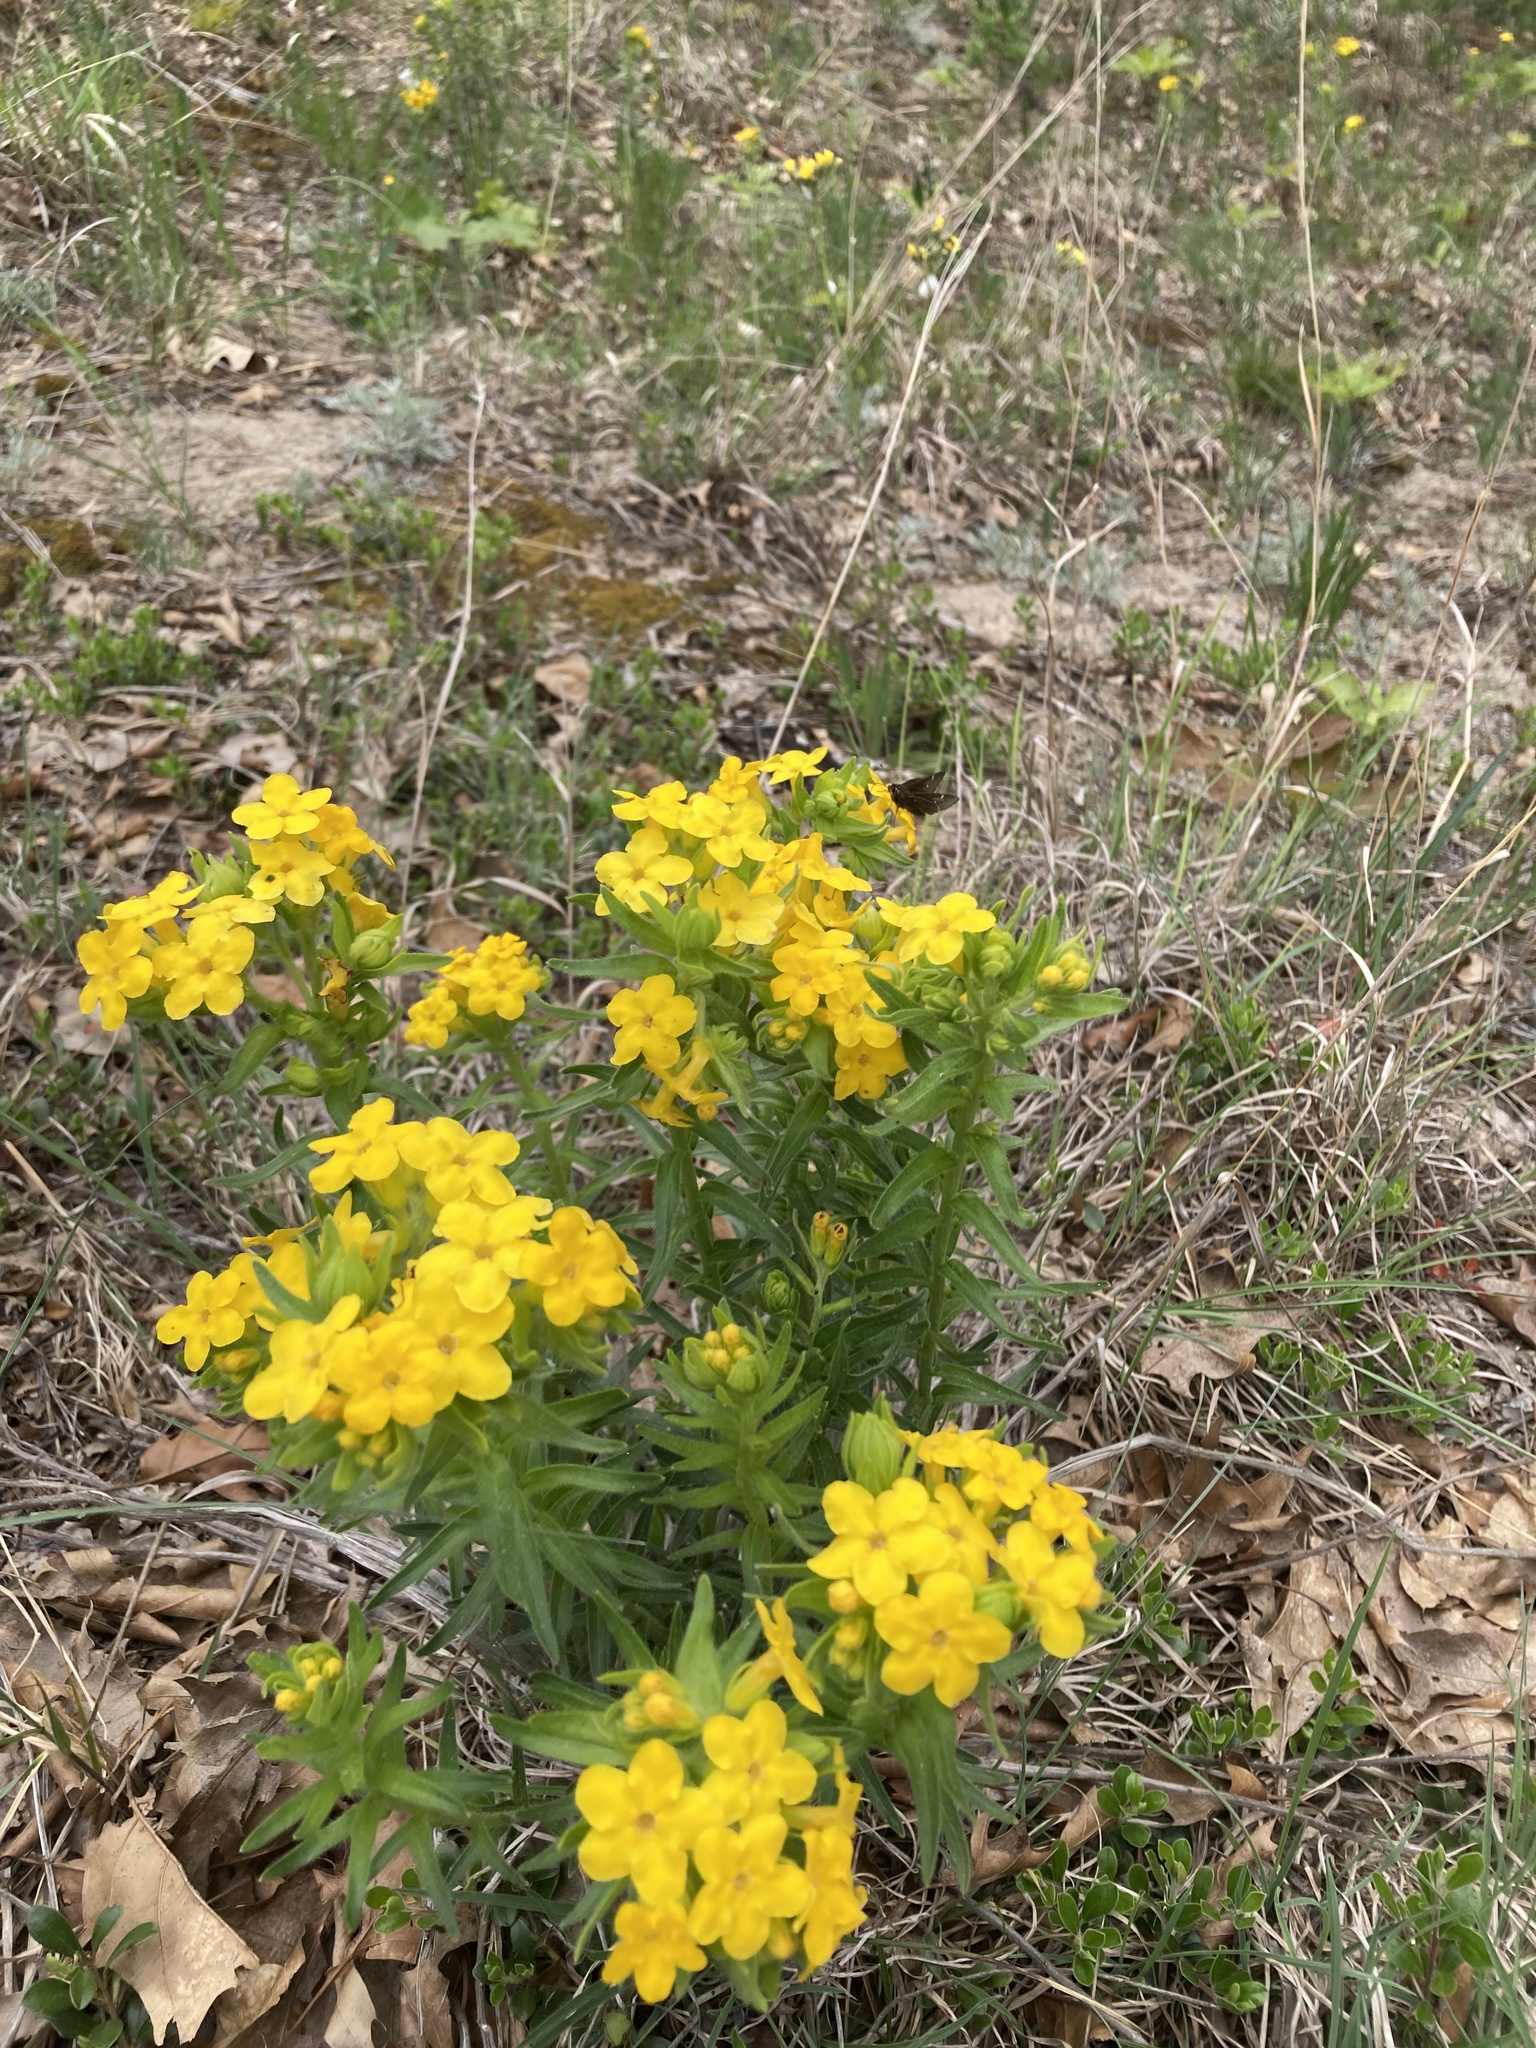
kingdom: Animalia
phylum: Arthropoda
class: Insecta
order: Lepidoptera
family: Hesperiidae
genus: Atrytonopsis
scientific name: Atrytonopsis hianna
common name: Dusted skipper
